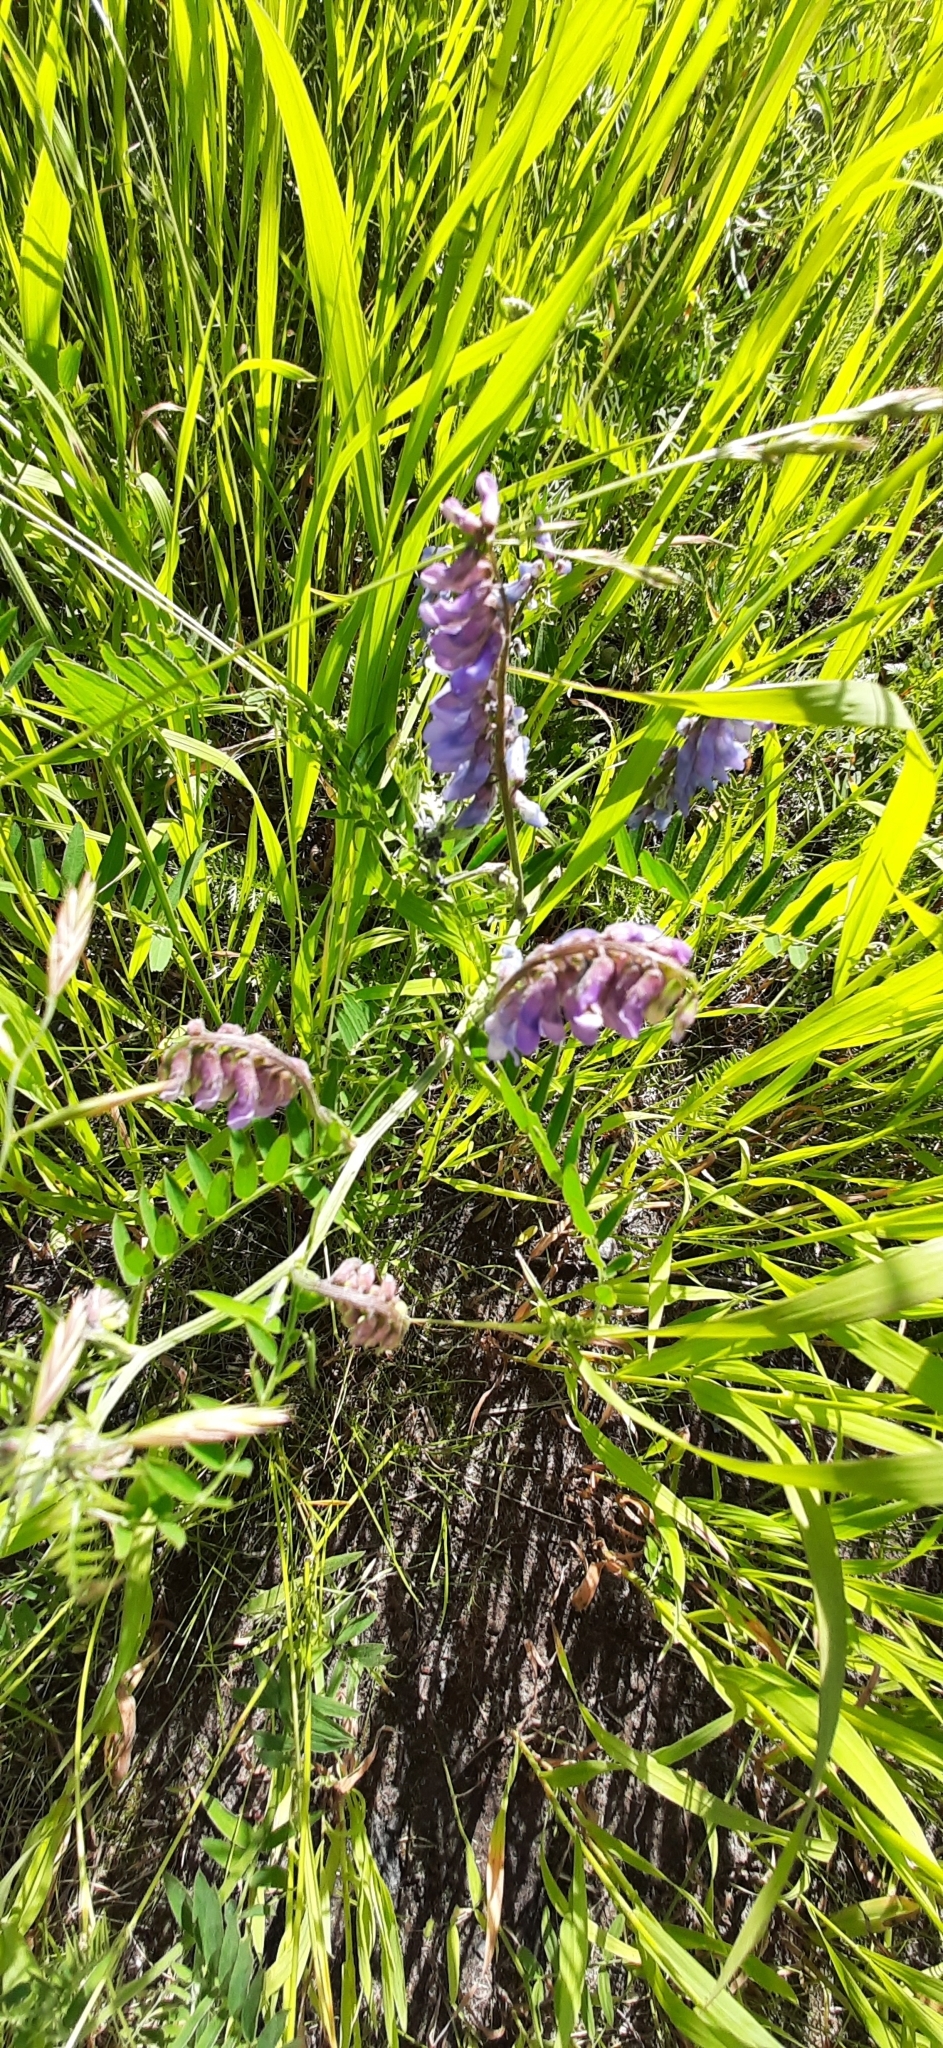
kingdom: Plantae
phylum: Tracheophyta
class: Magnoliopsida
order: Fabales
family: Fabaceae
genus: Vicia
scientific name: Vicia cracca
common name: Bird vetch
